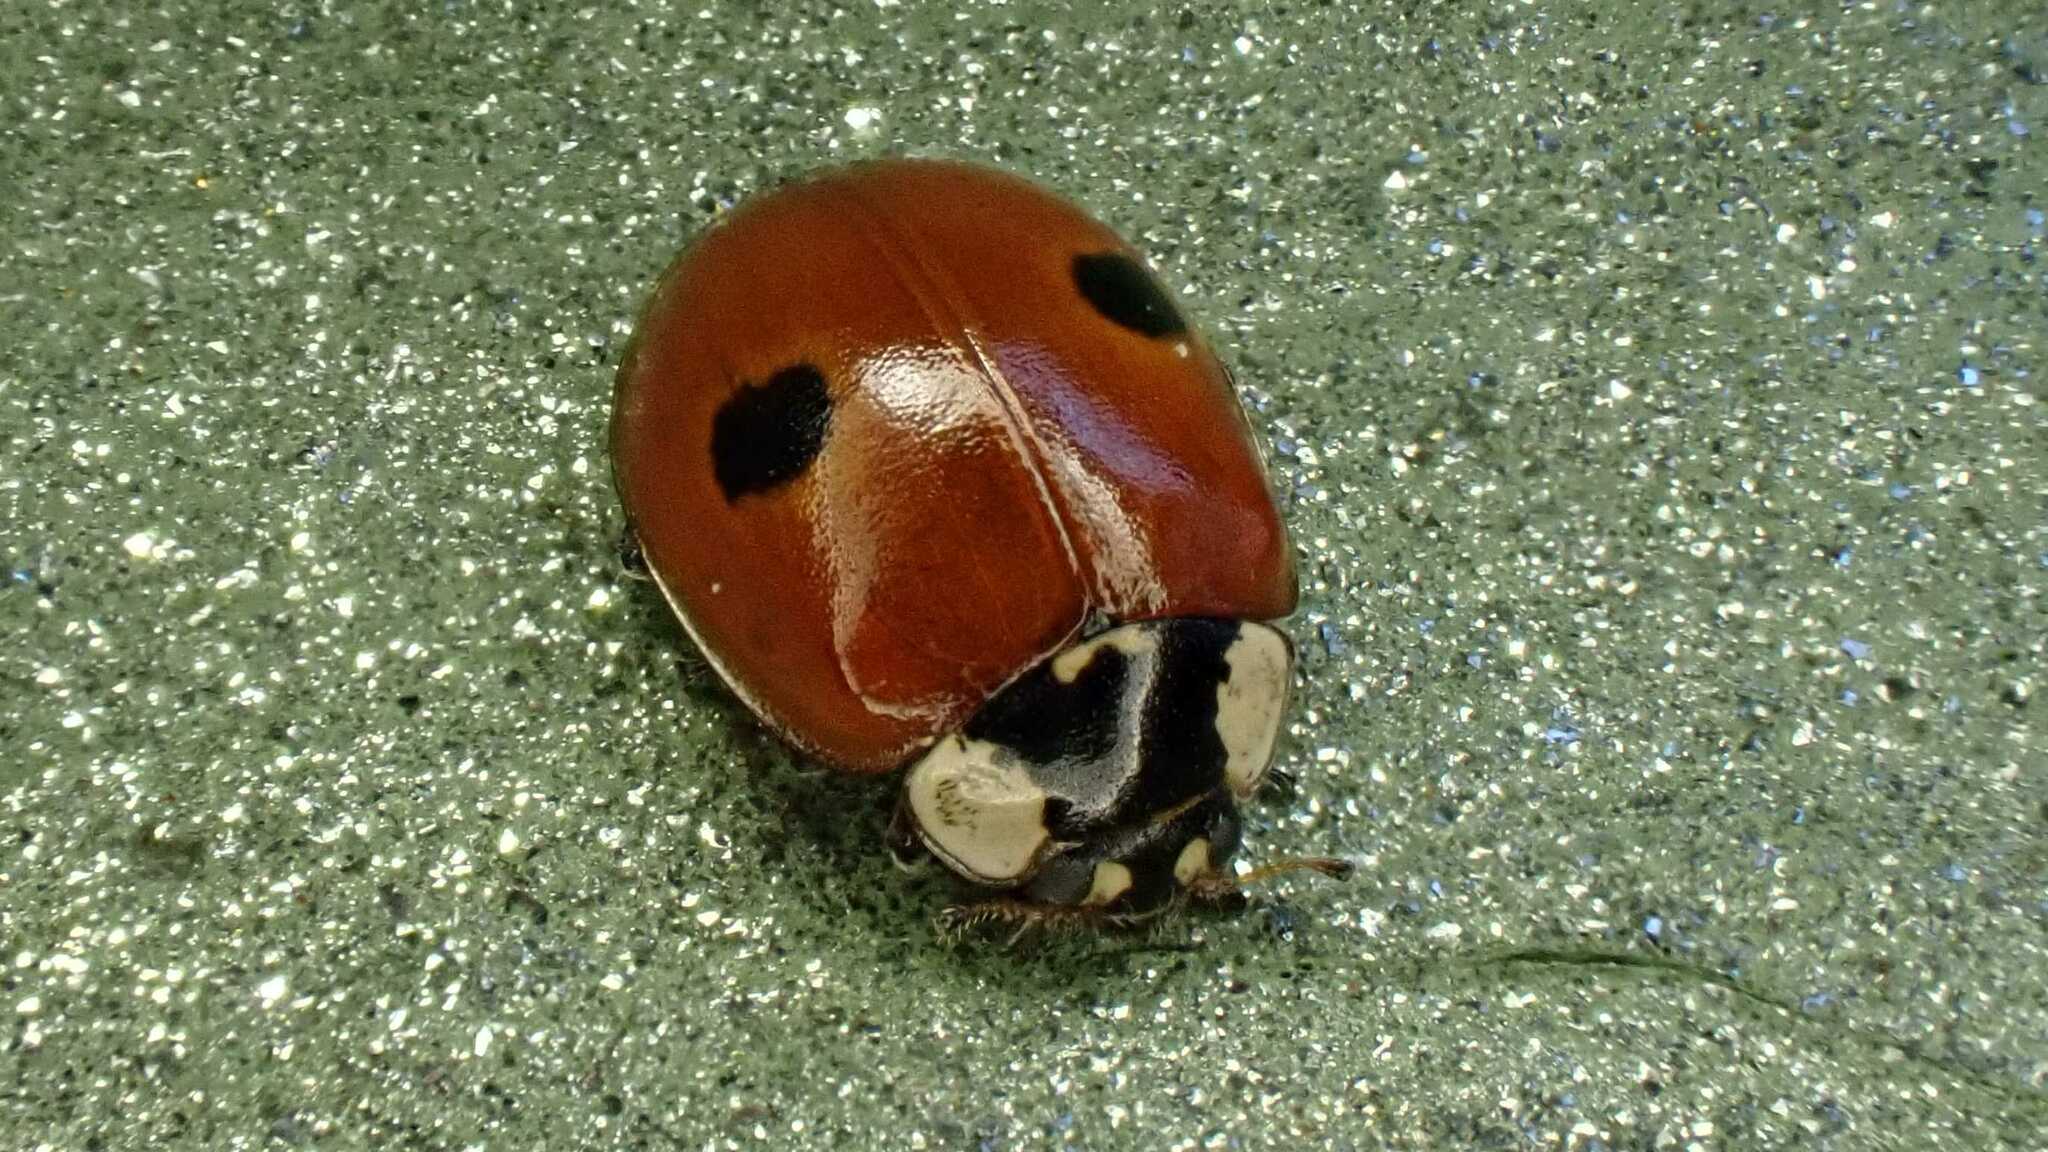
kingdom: Animalia
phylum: Arthropoda
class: Insecta
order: Coleoptera
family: Coccinellidae
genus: Adalia
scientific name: Adalia bipunctata
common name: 2-spot ladybird
